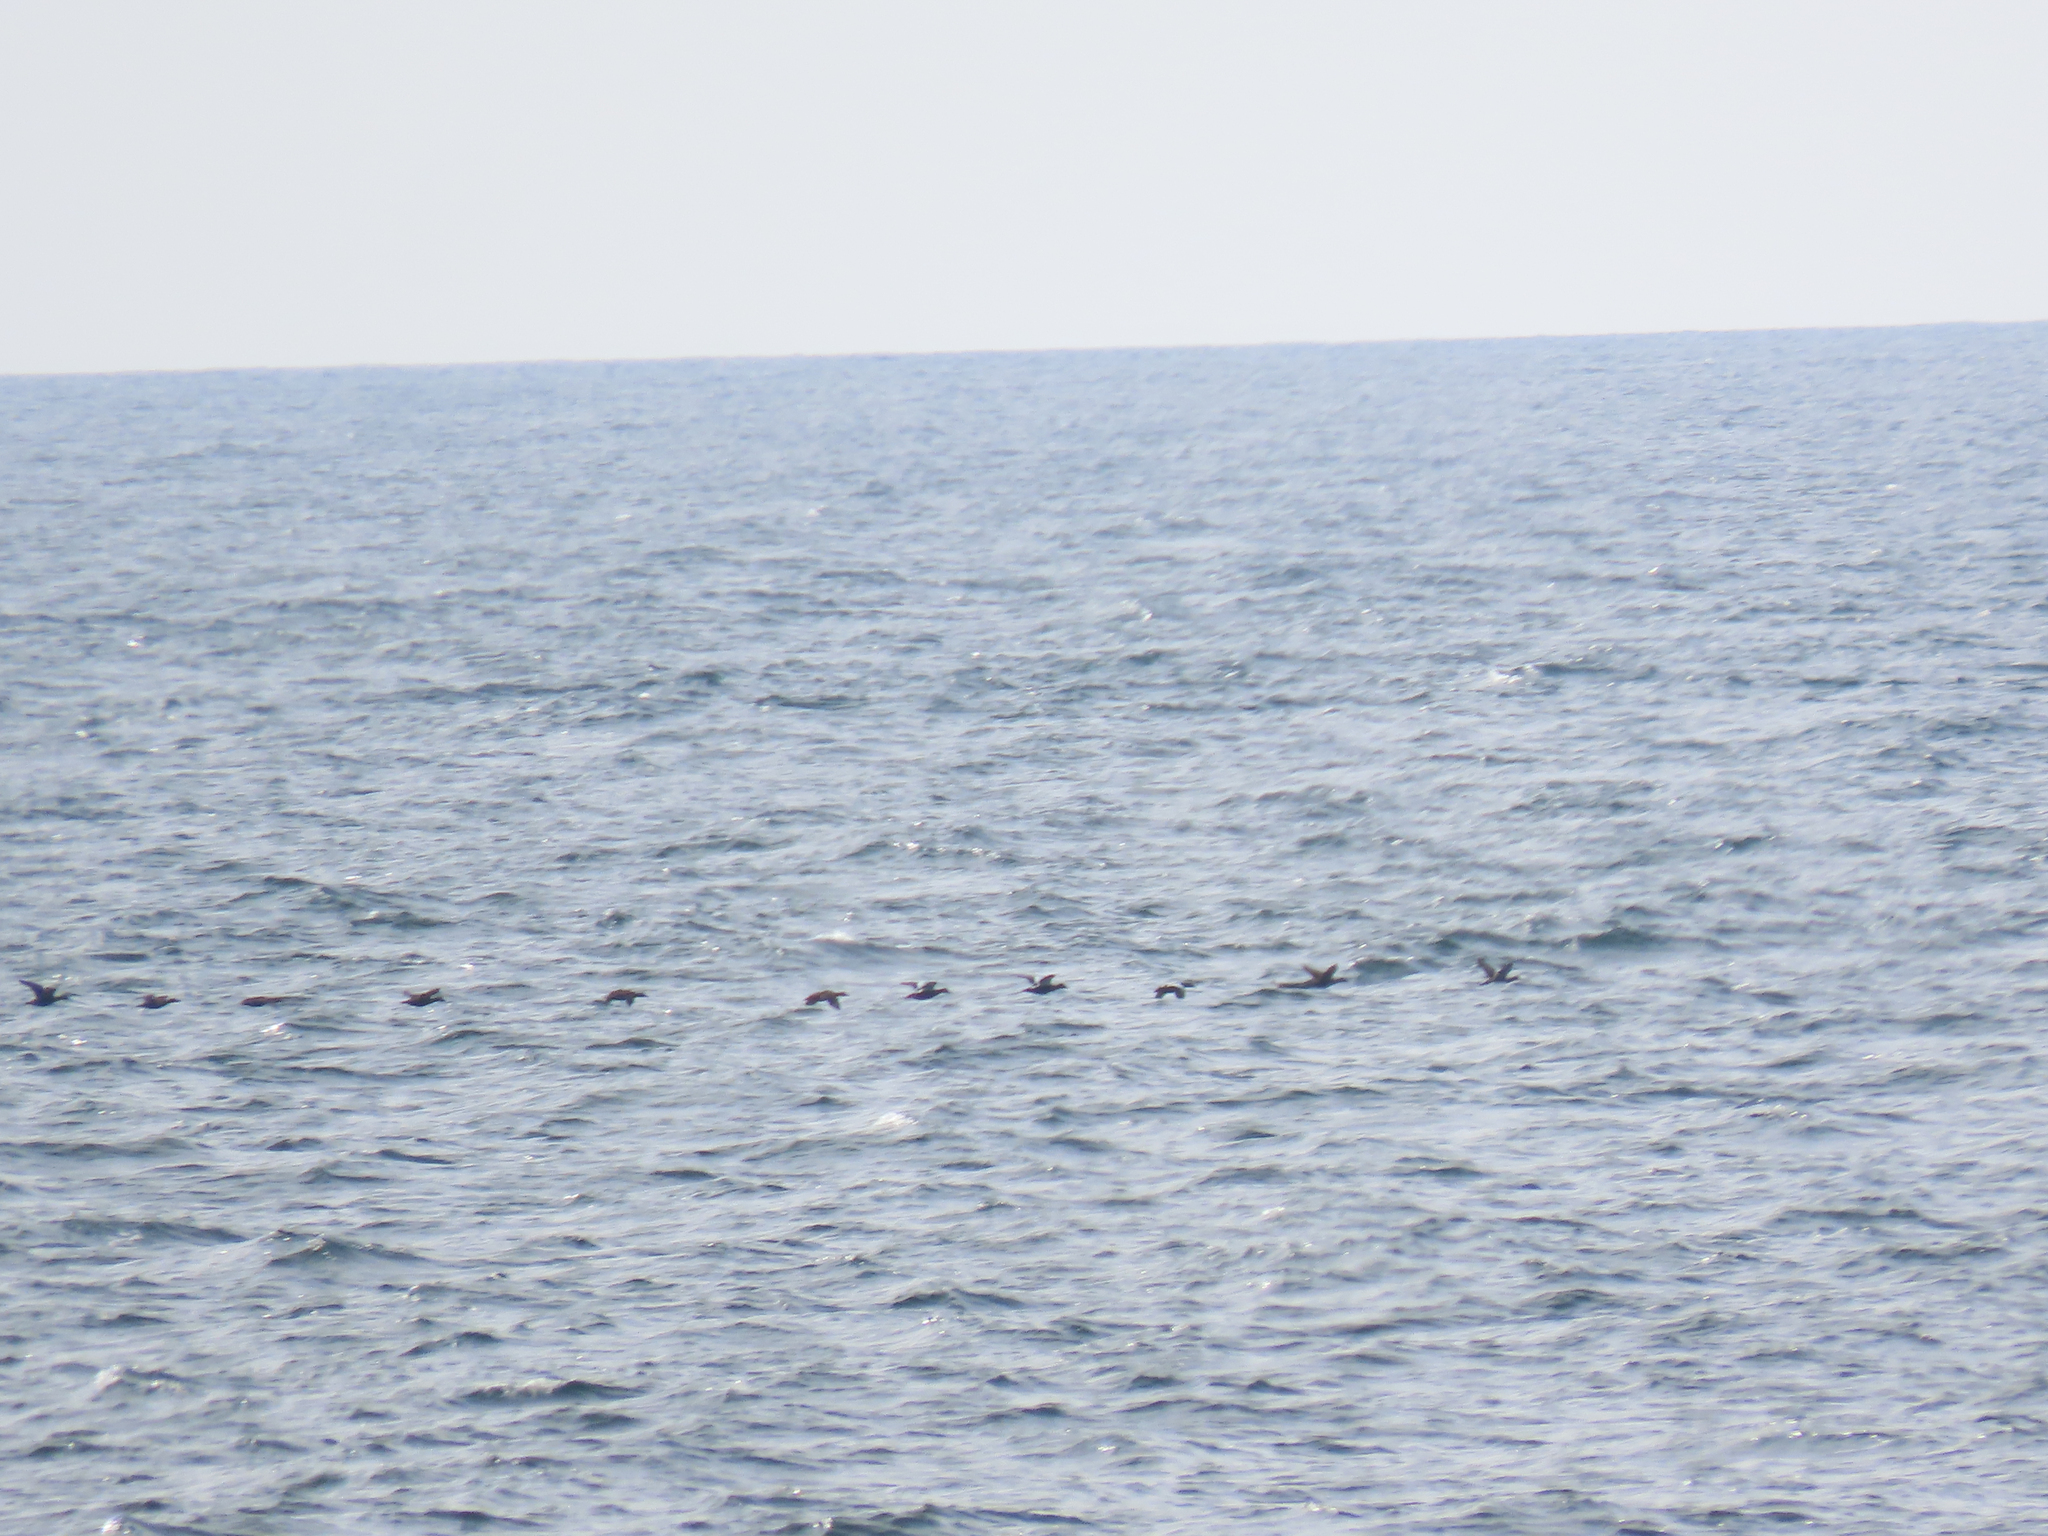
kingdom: Animalia
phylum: Chordata
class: Aves
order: Anseriformes
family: Anatidae
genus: Somateria
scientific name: Somateria mollissima
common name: Common eider
